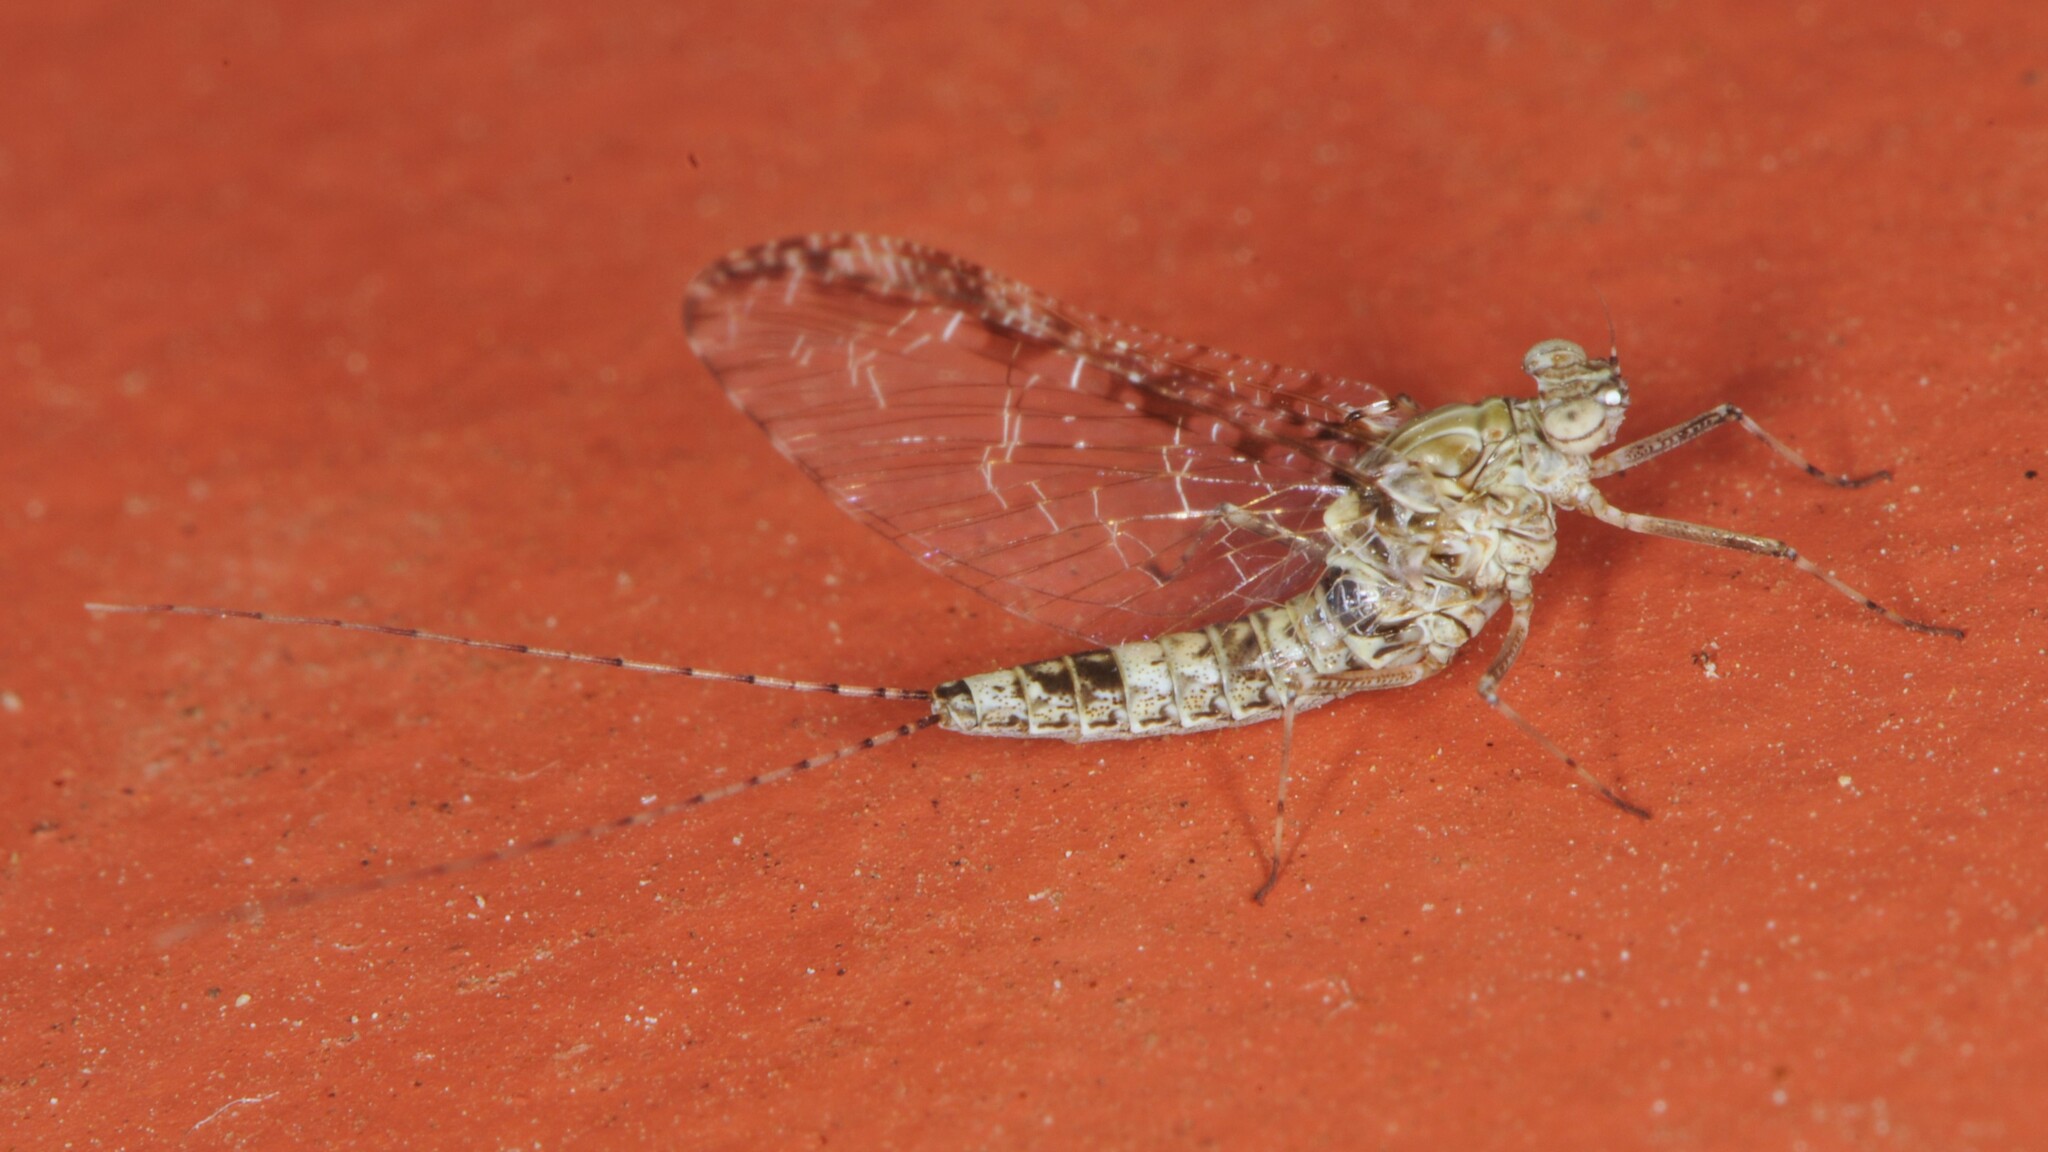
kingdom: Animalia
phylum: Arthropoda
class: Insecta
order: Ephemeroptera
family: Baetidae
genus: Callibaetis
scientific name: Callibaetis pictus
